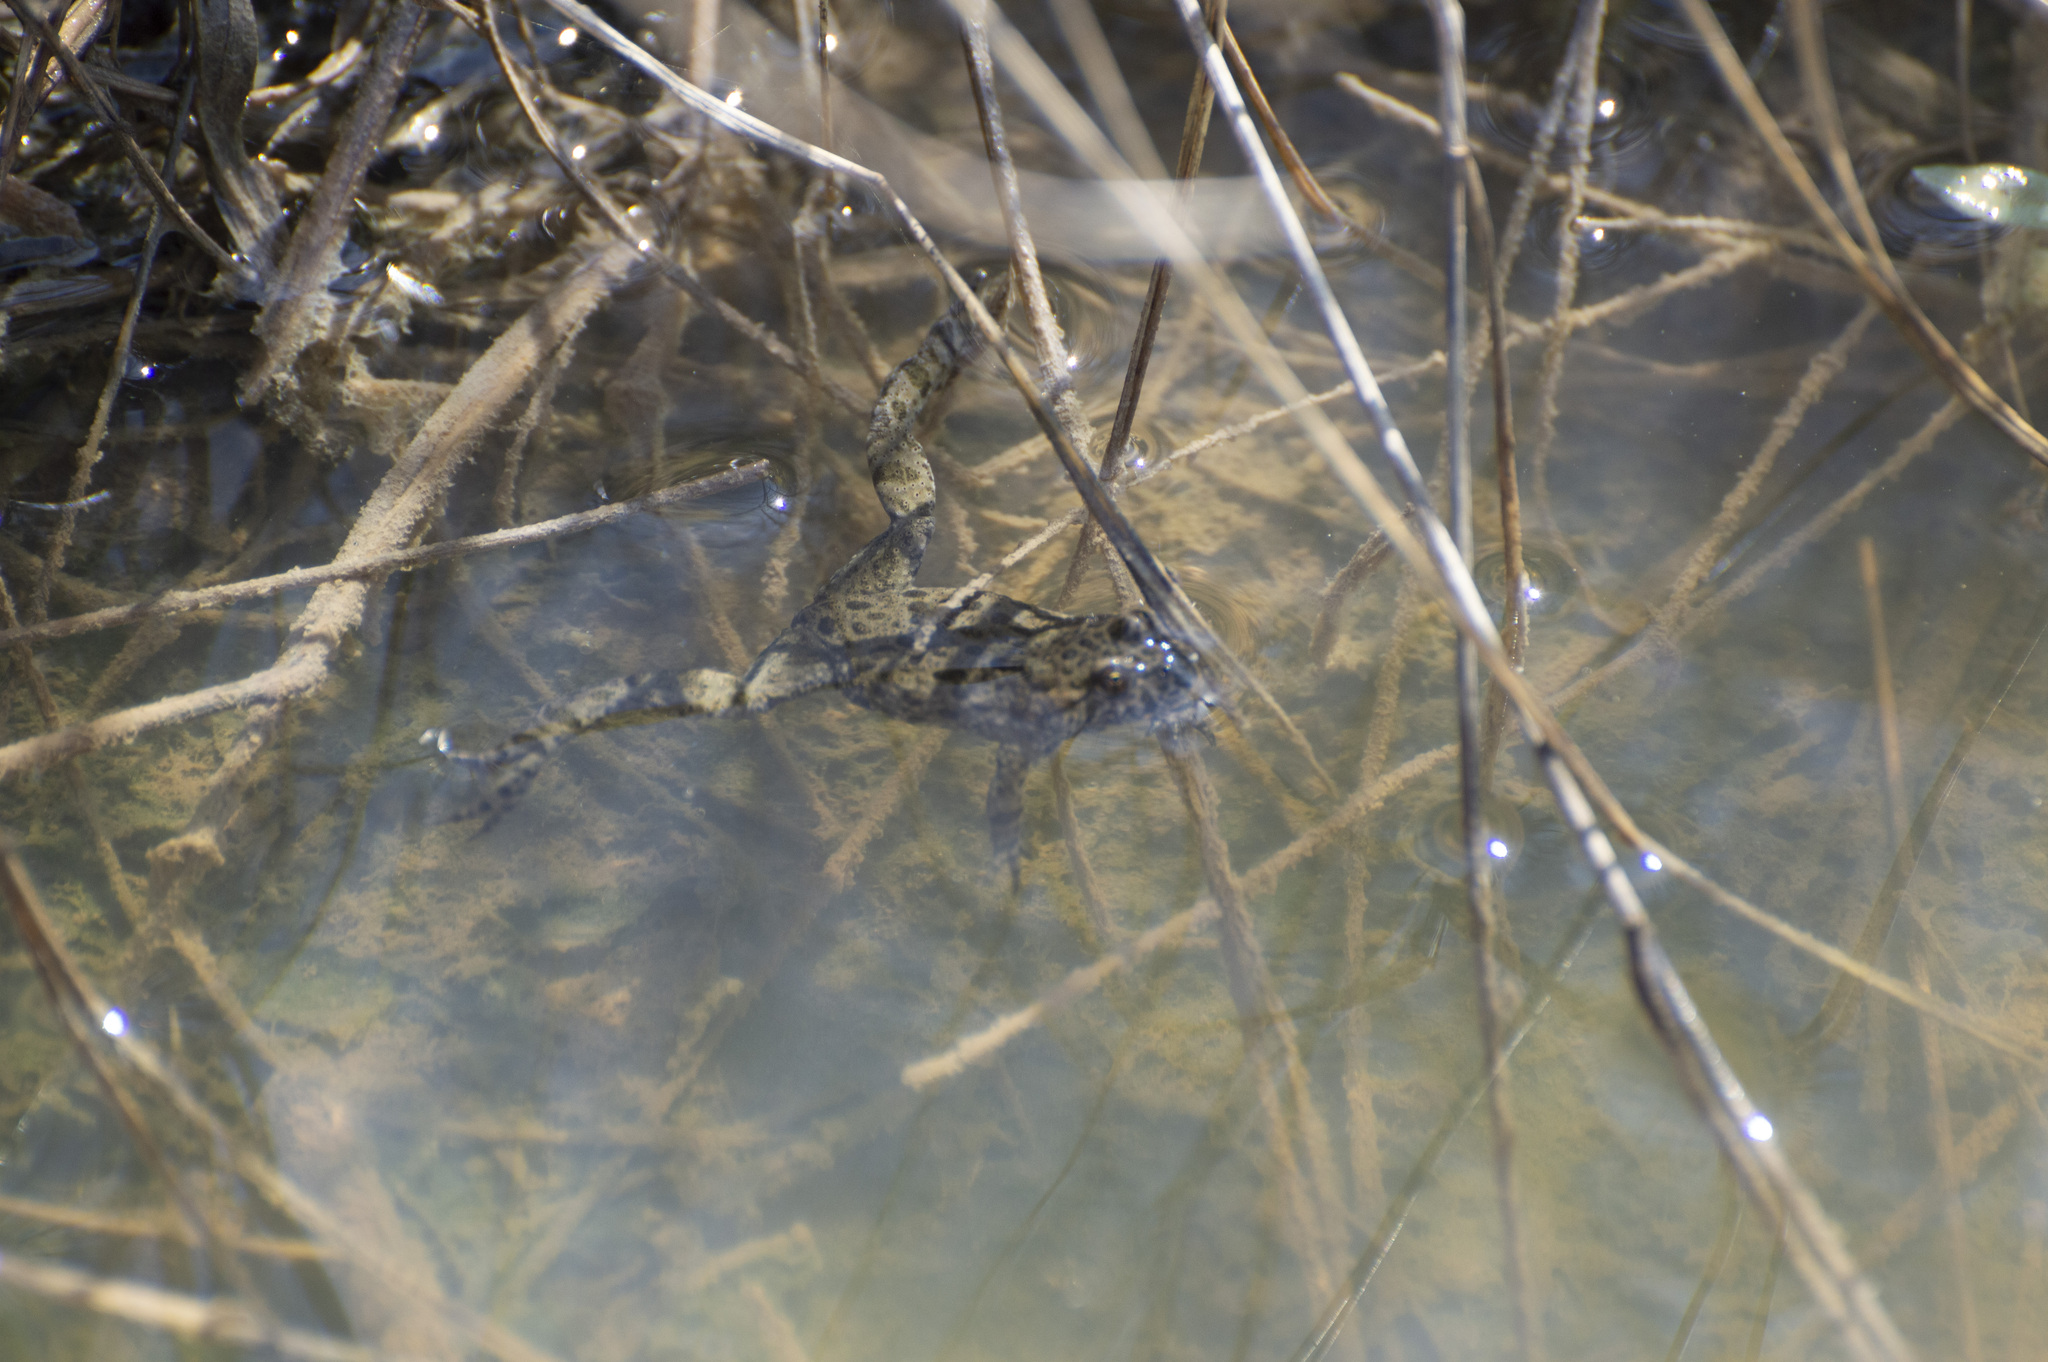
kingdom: Animalia
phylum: Chordata
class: Amphibia
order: Anura
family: Bombinatoridae
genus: Bombina
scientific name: Bombina bombina
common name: Fire-bellied toad
